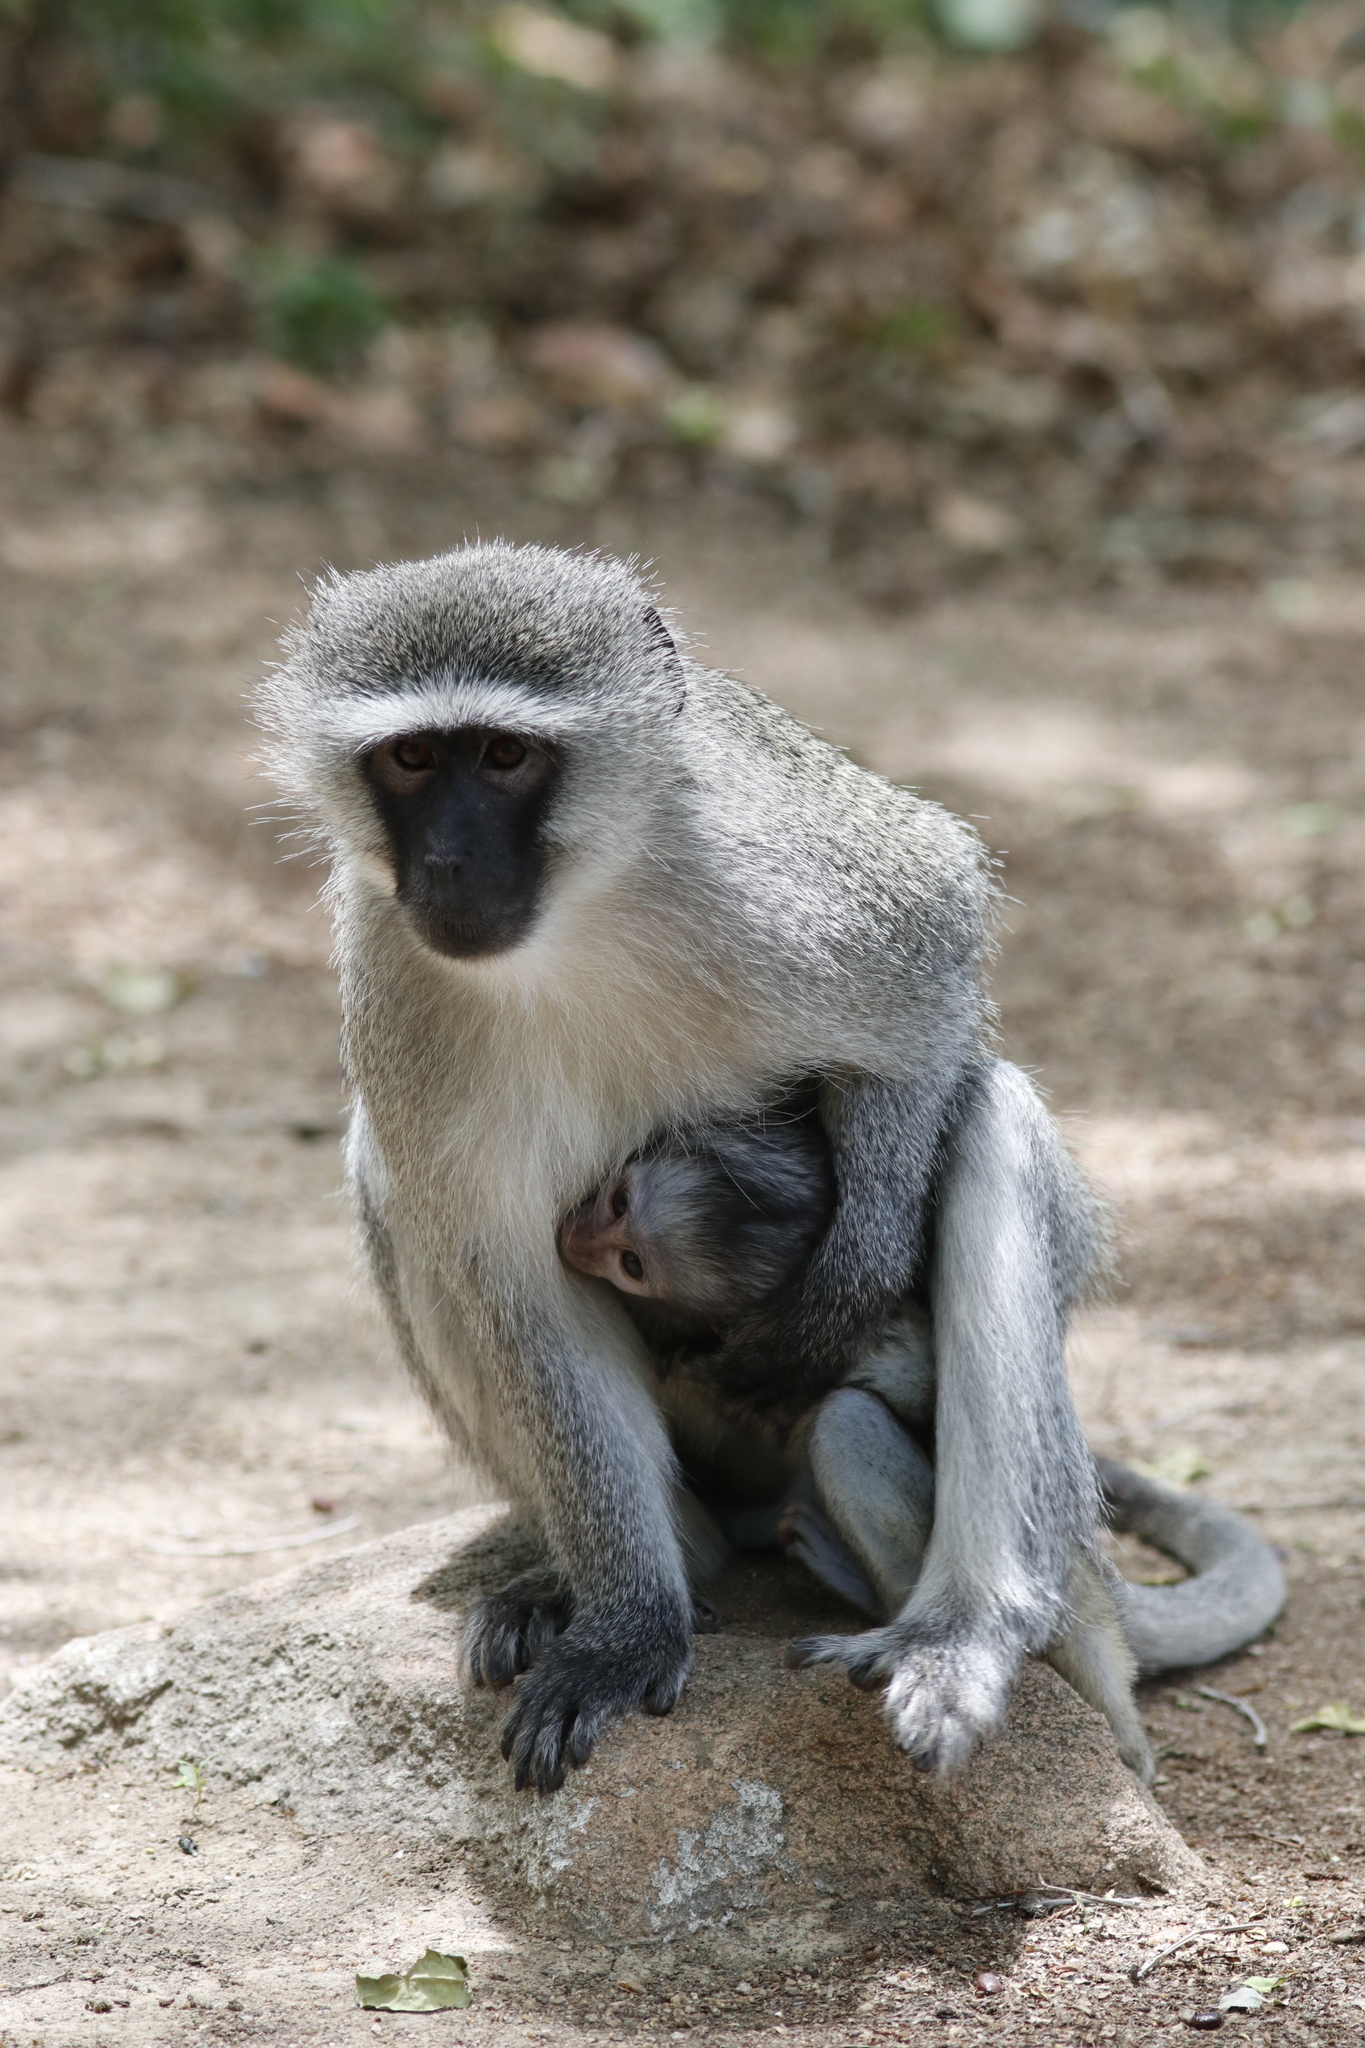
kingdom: Animalia
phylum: Chordata
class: Mammalia
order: Primates
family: Cercopithecidae
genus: Chlorocebus
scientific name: Chlorocebus pygerythrus
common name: Vervet monkey
